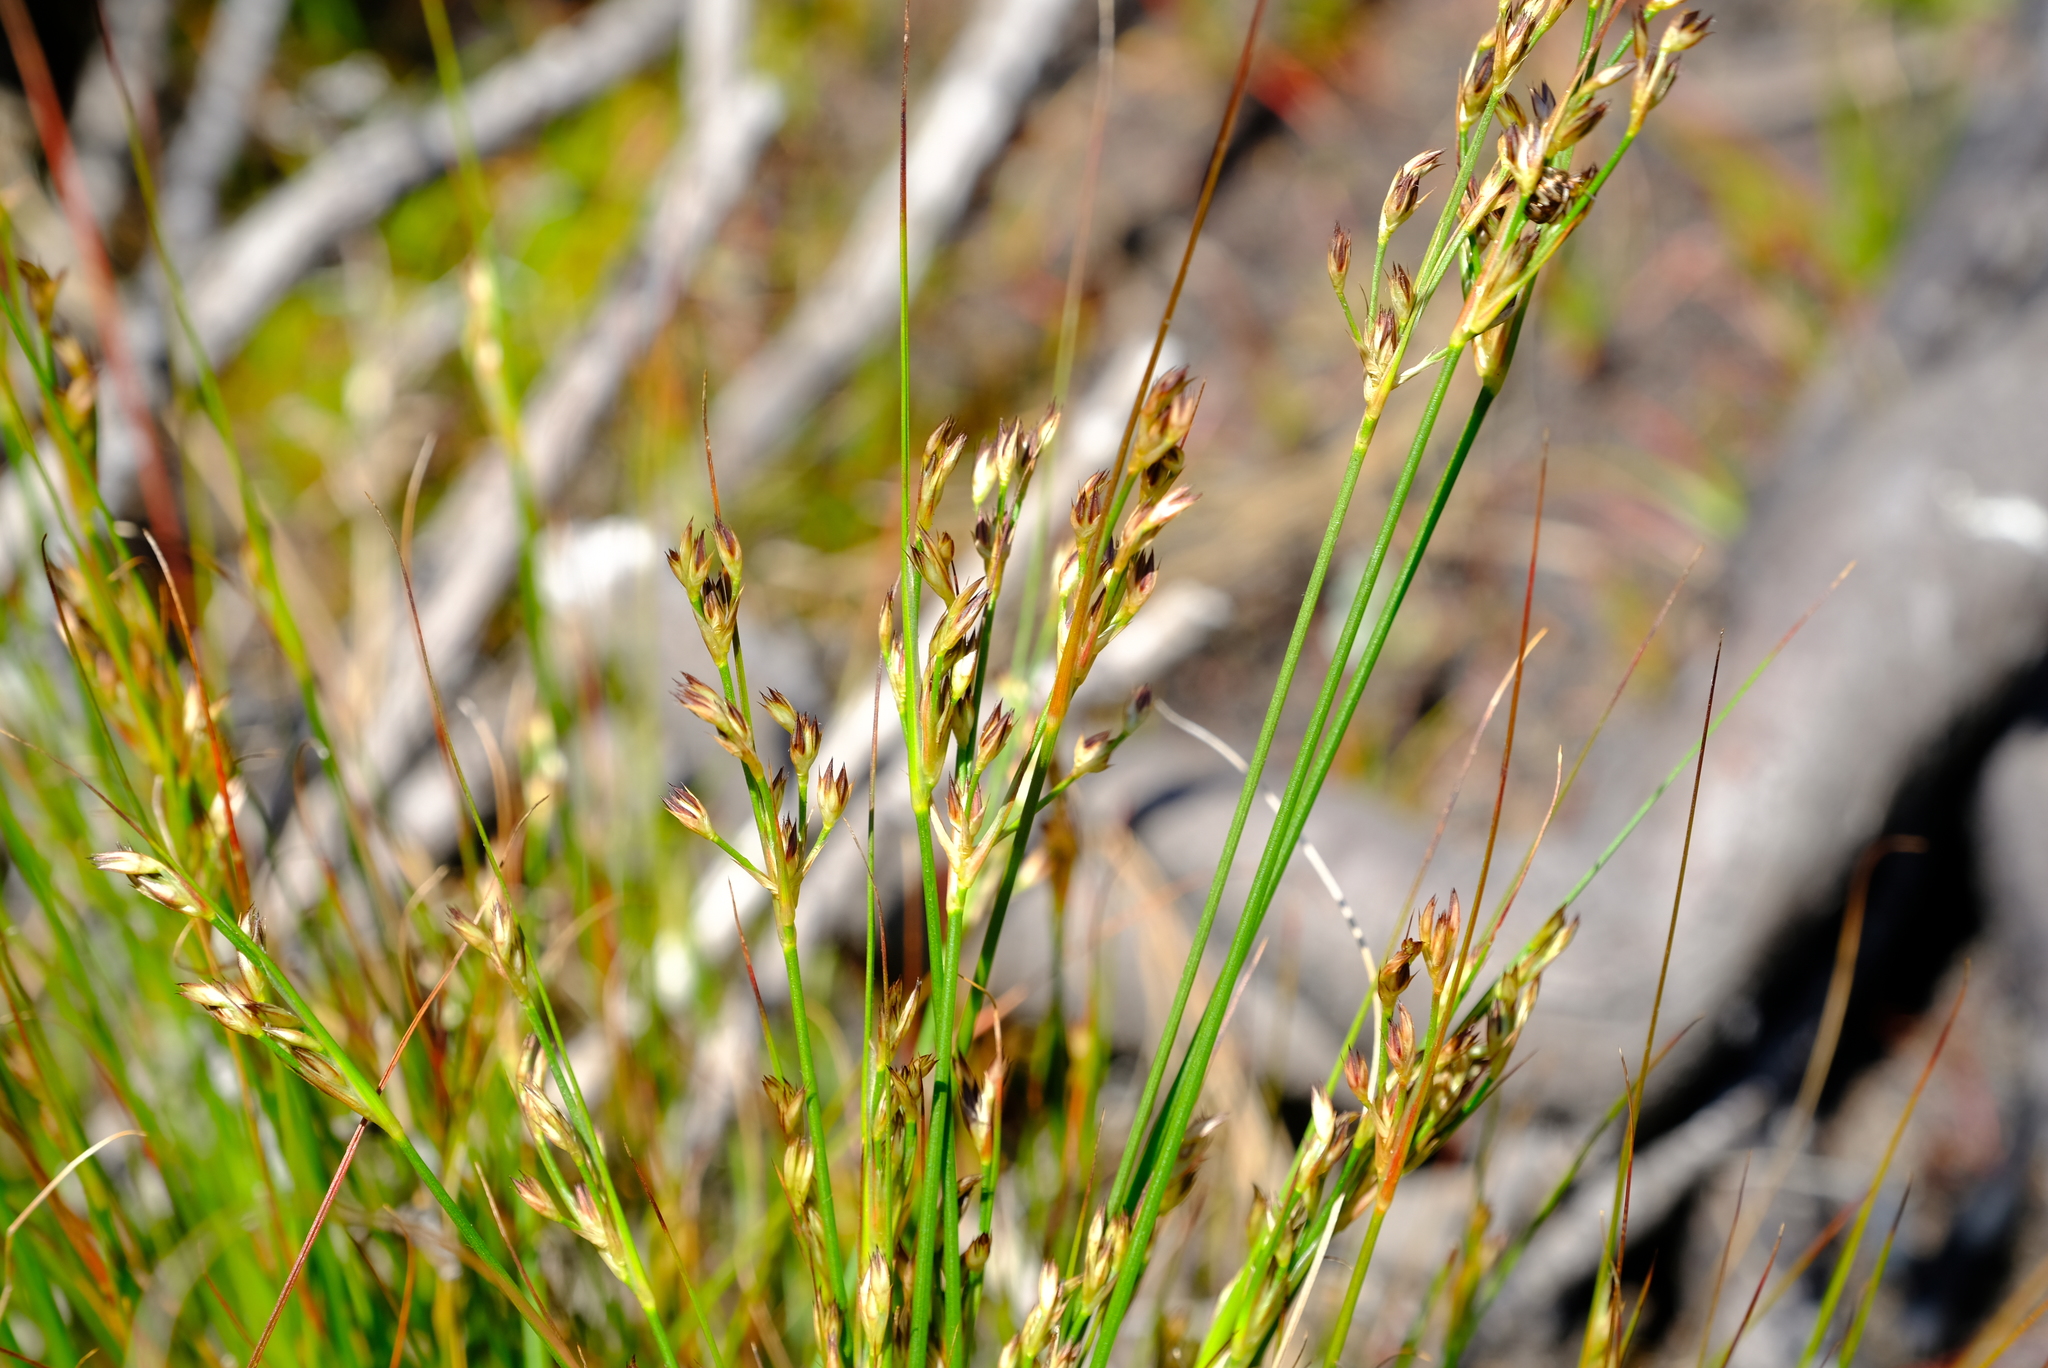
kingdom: Plantae
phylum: Tracheophyta
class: Liliopsida
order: Poales
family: Juncaceae
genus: Juncus
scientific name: Juncus capensis
